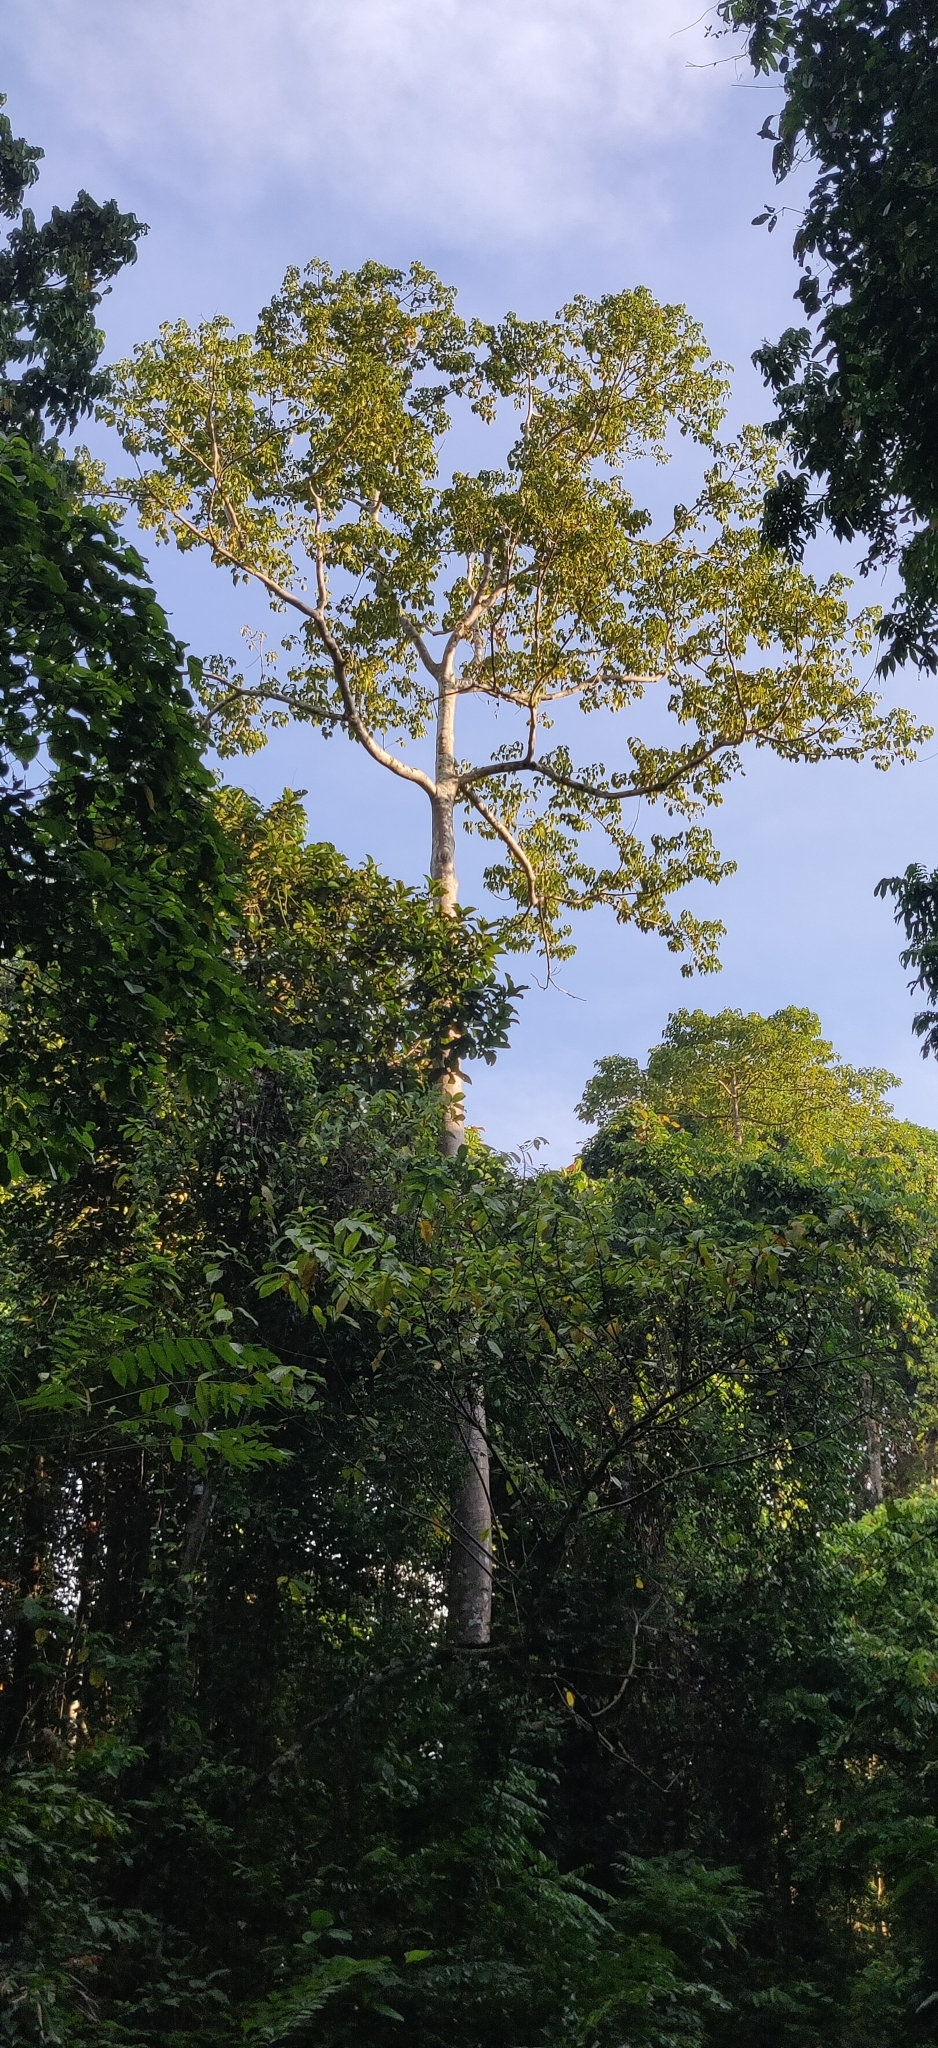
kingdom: Plantae
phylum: Tracheophyta
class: Magnoliopsida
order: Cucurbitales
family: Tetramelaceae
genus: Tetrameles
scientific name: Tetrameles nudiflora
